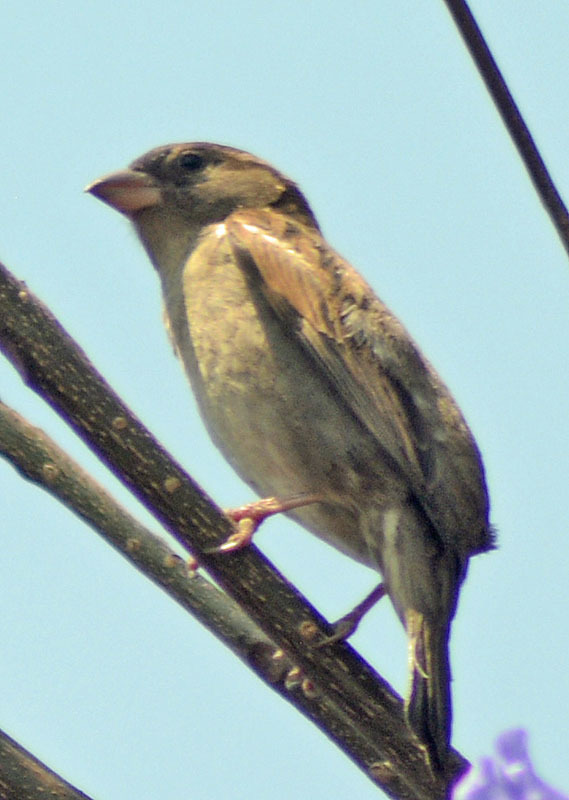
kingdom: Animalia
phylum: Chordata
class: Aves
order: Passeriformes
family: Passeridae
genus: Passer
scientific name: Passer domesticus
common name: House sparrow
